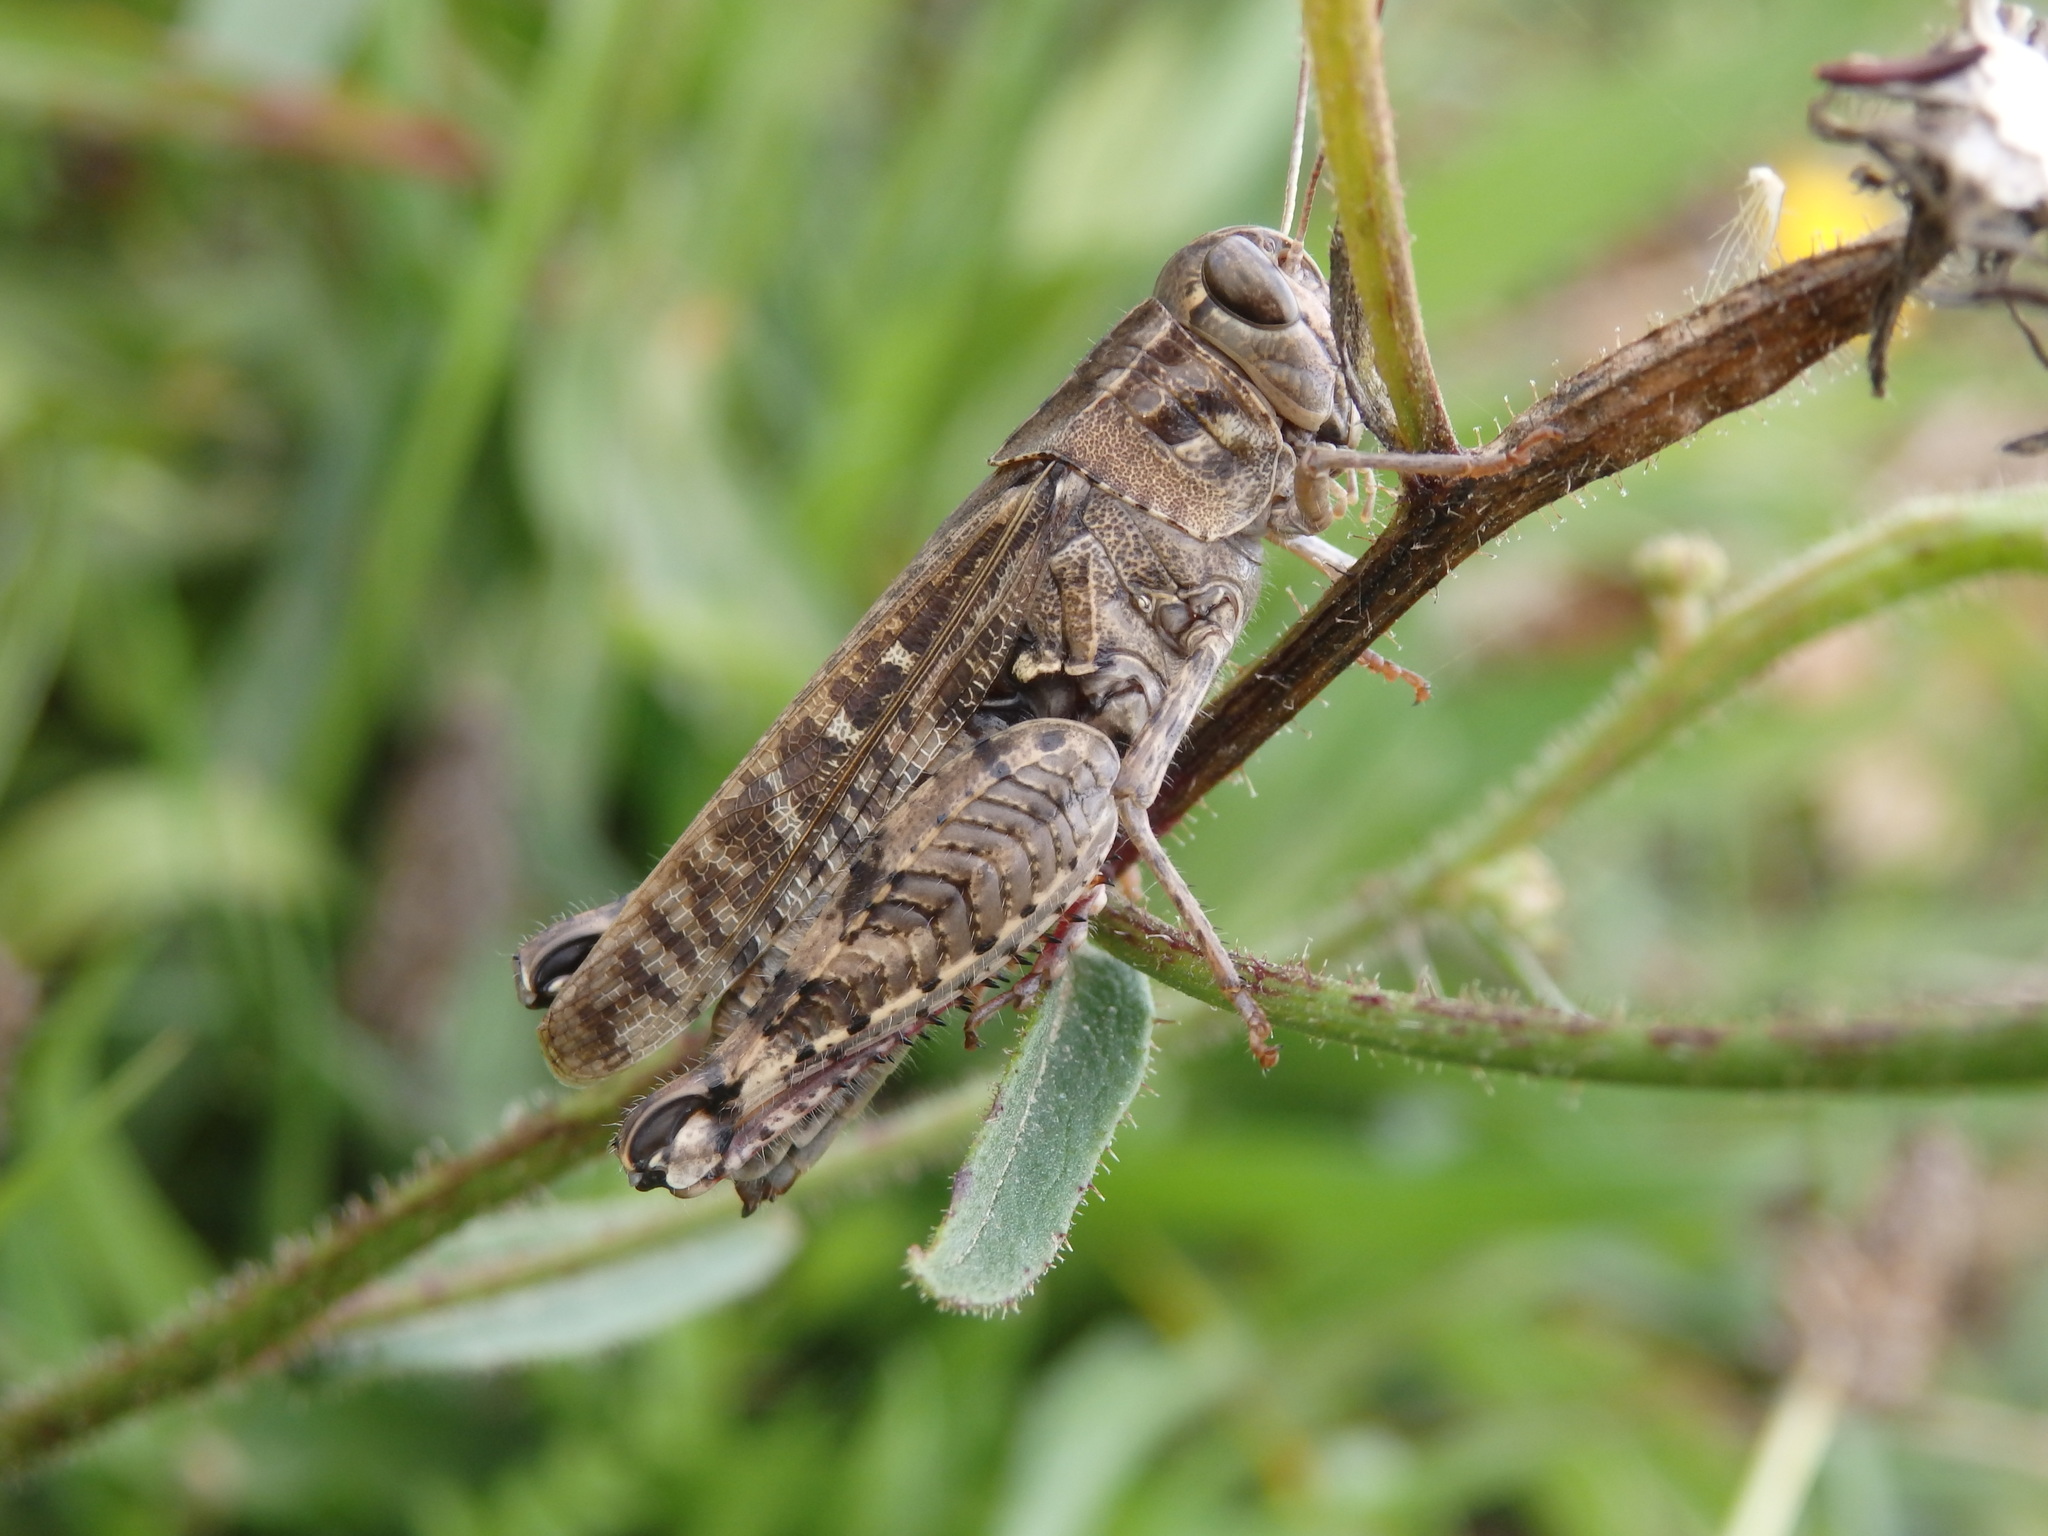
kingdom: Animalia
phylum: Arthropoda
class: Insecta
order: Orthoptera
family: Acrididae
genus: Calliptamus
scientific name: Calliptamus barbarus
